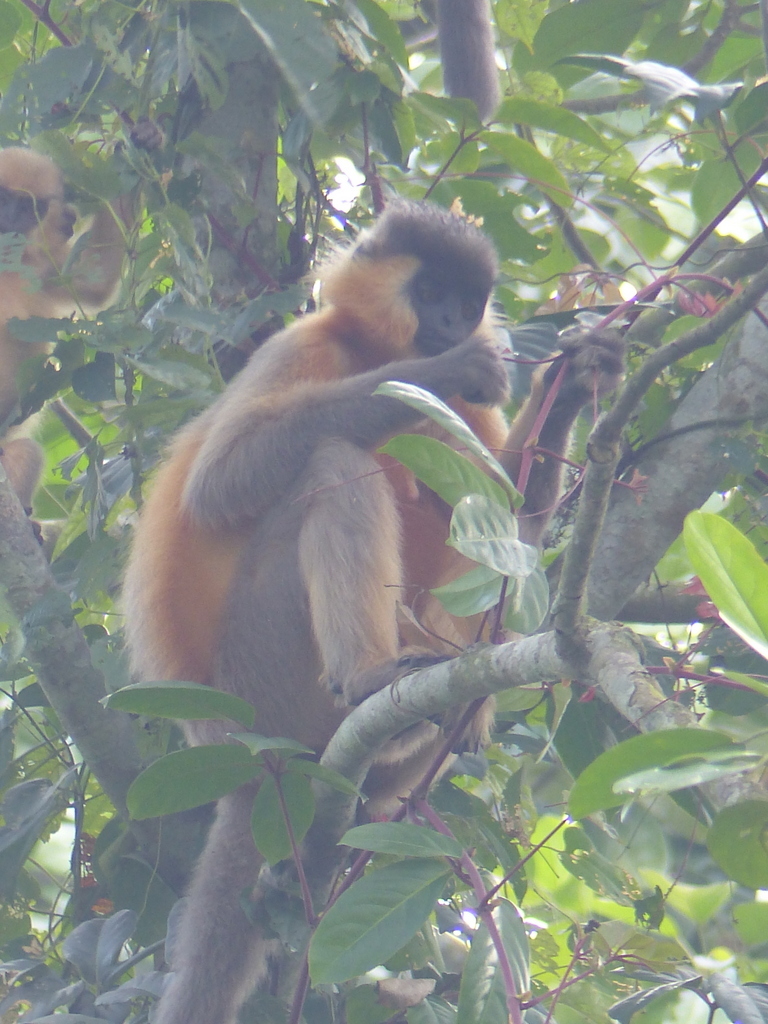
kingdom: Animalia
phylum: Chordata
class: Mammalia
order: Primates
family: Cercopithecidae
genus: Trachypithecus
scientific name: Trachypithecus pileatus
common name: Capped langur
